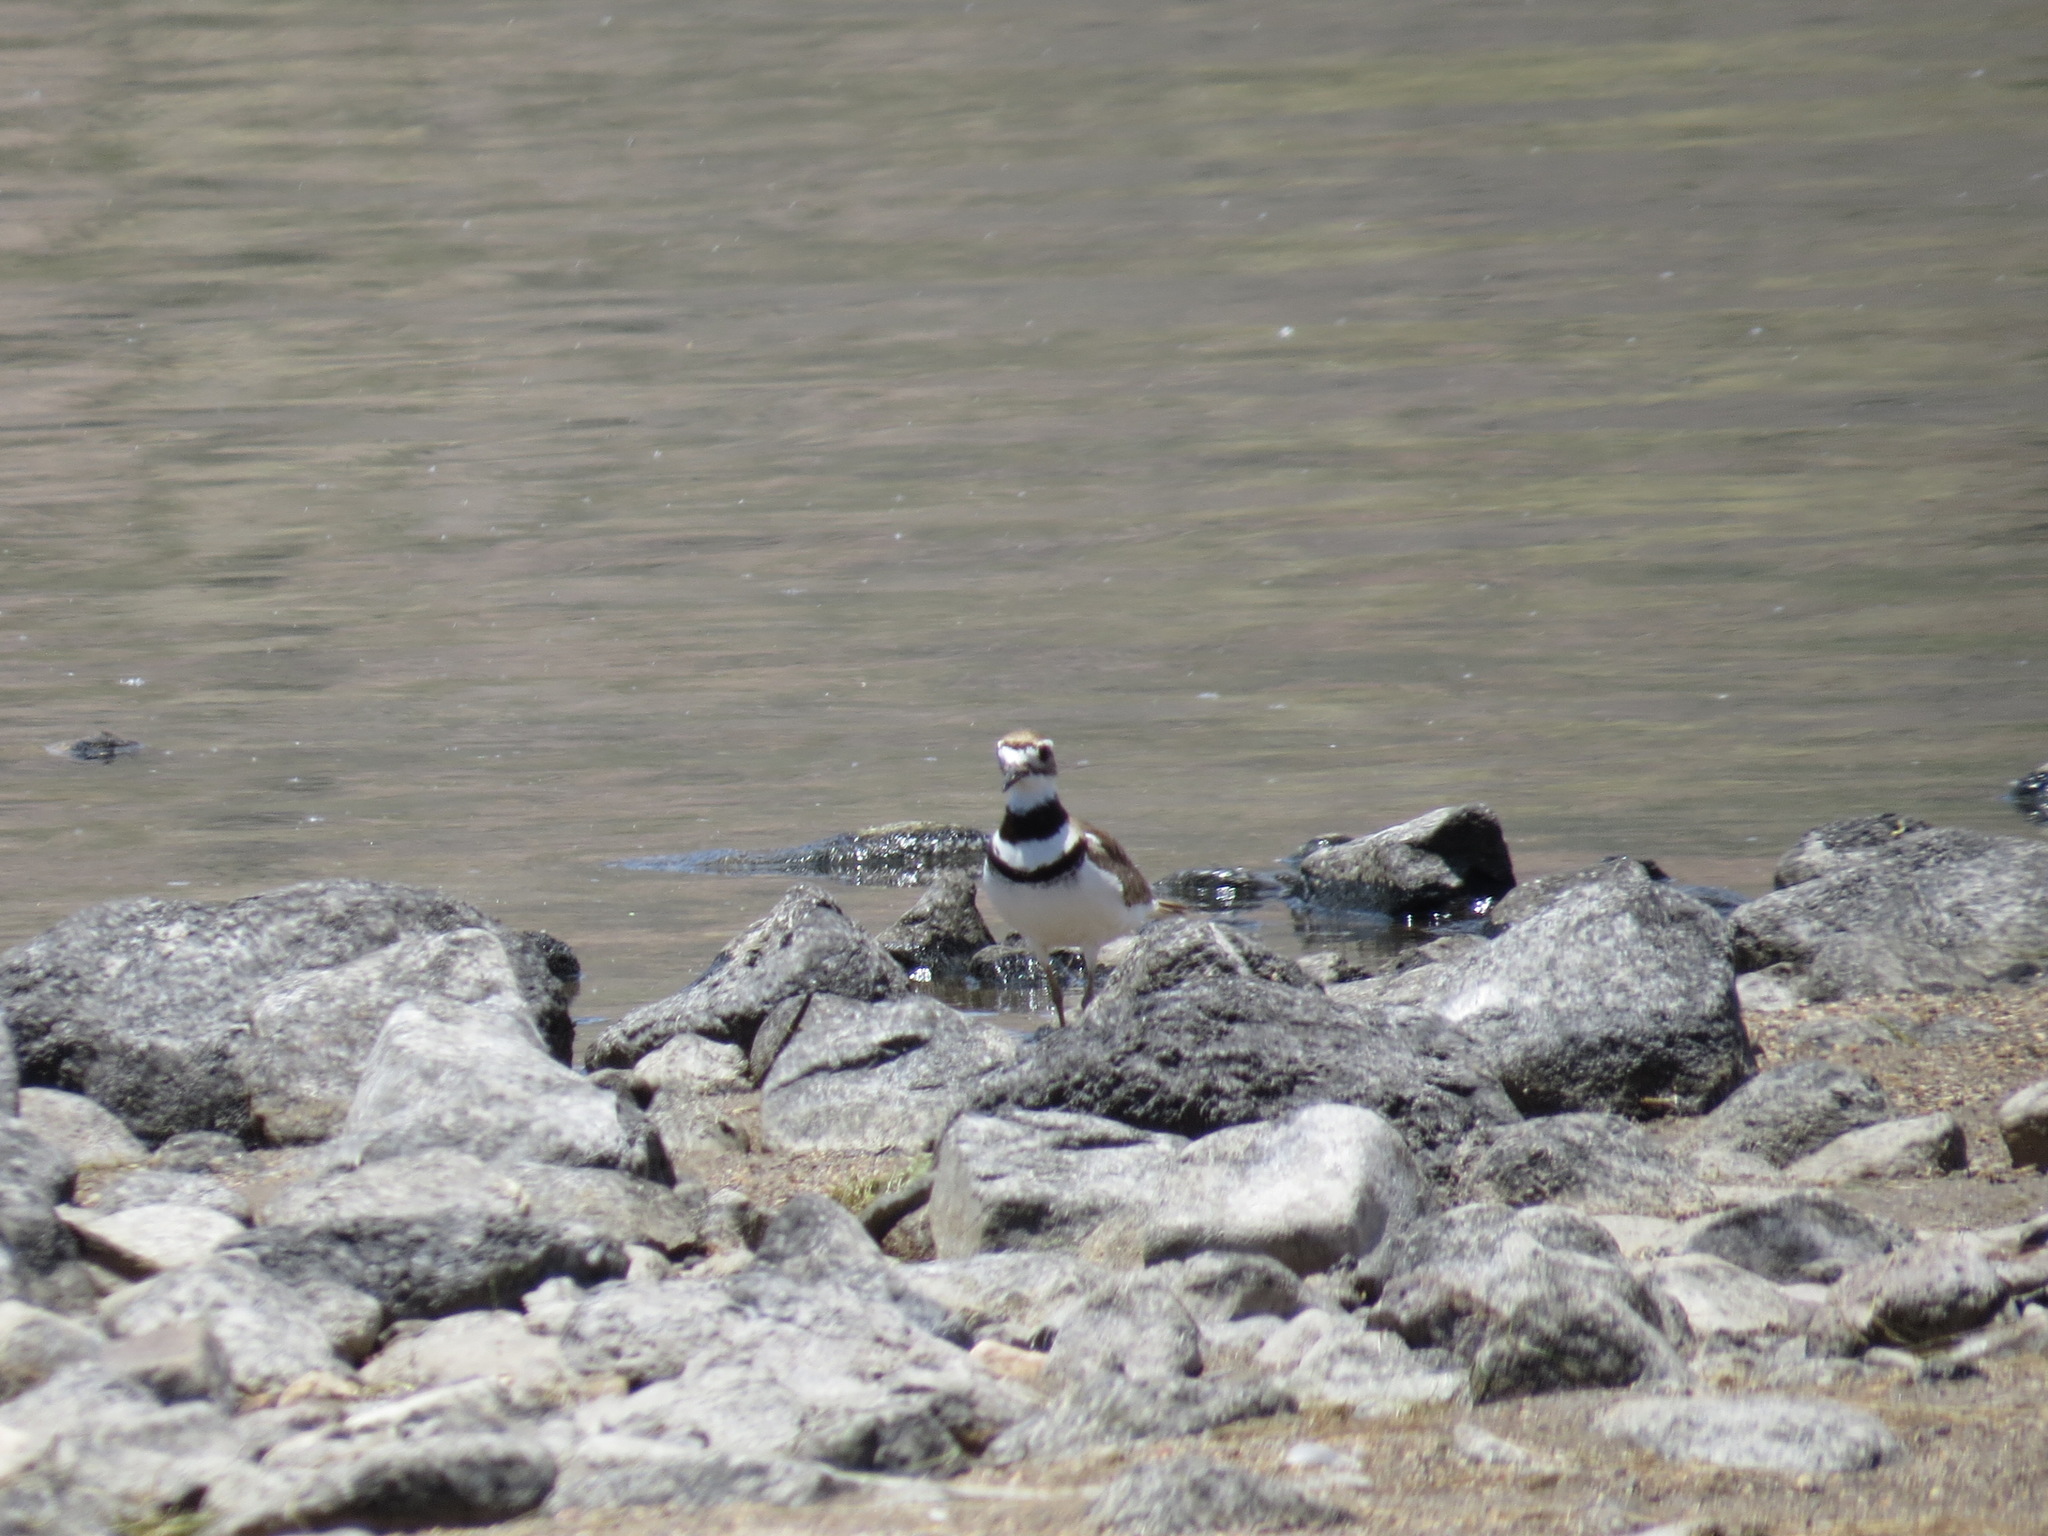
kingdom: Animalia
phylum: Chordata
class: Aves
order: Charadriiformes
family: Charadriidae
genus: Charadrius
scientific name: Charadrius vociferus
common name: Killdeer
